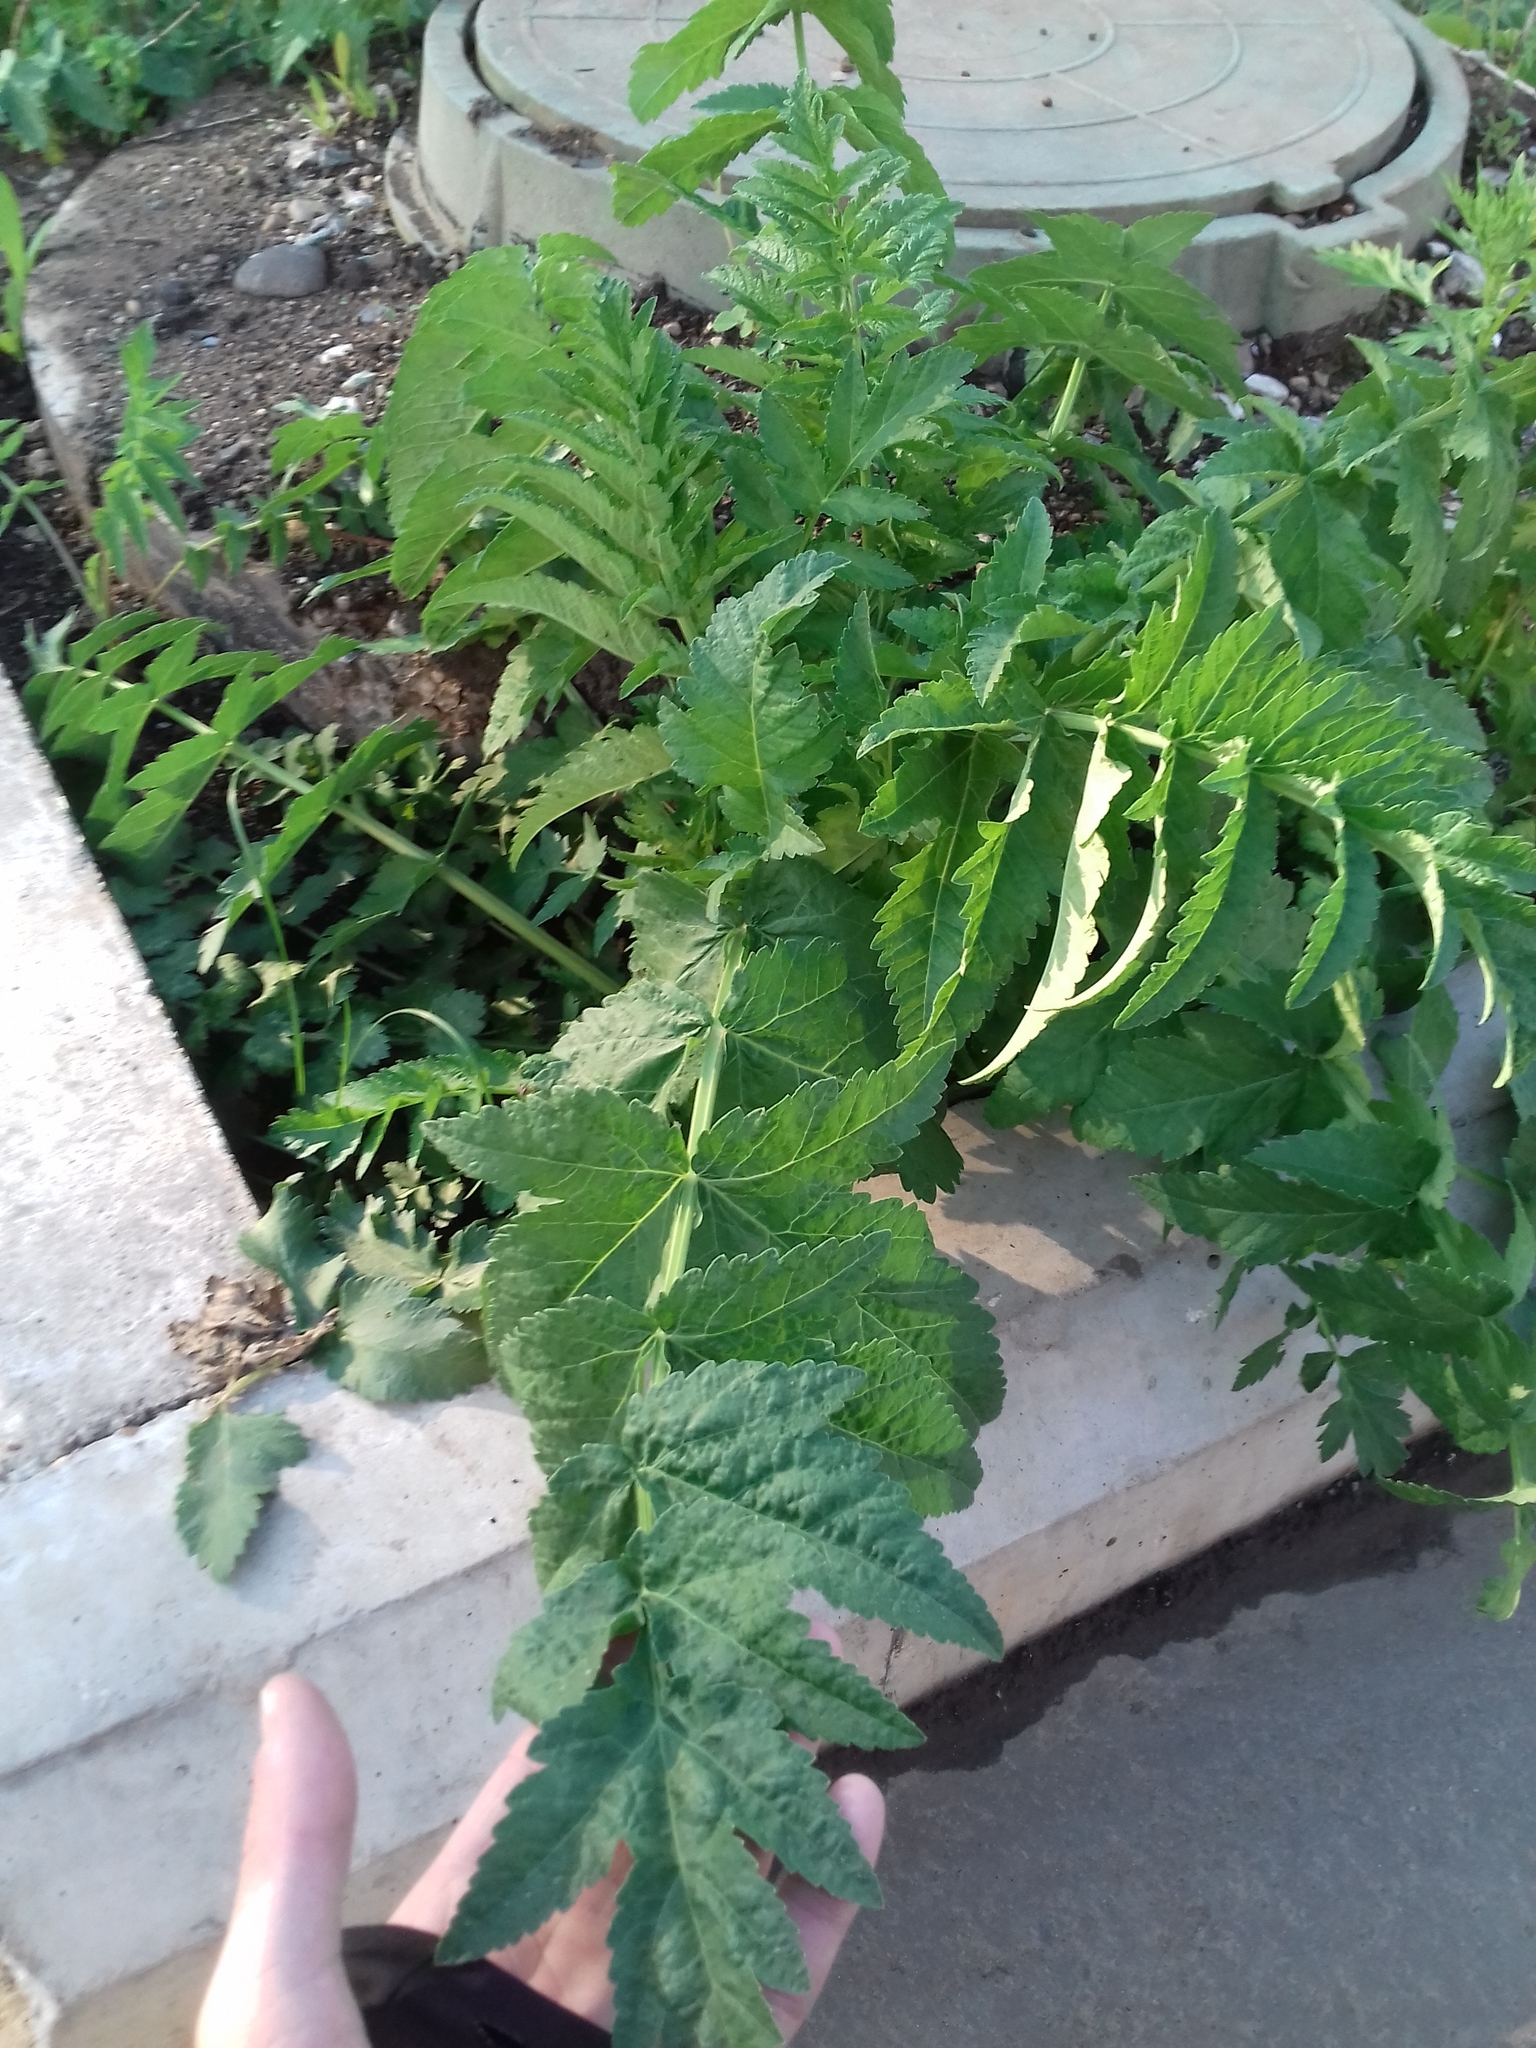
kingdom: Plantae
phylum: Tracheophyta
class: Magnoliopsida
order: Apiales
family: Apiaceae
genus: Pastinaca
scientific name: Pastinaca sativa
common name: Wild parsnip
